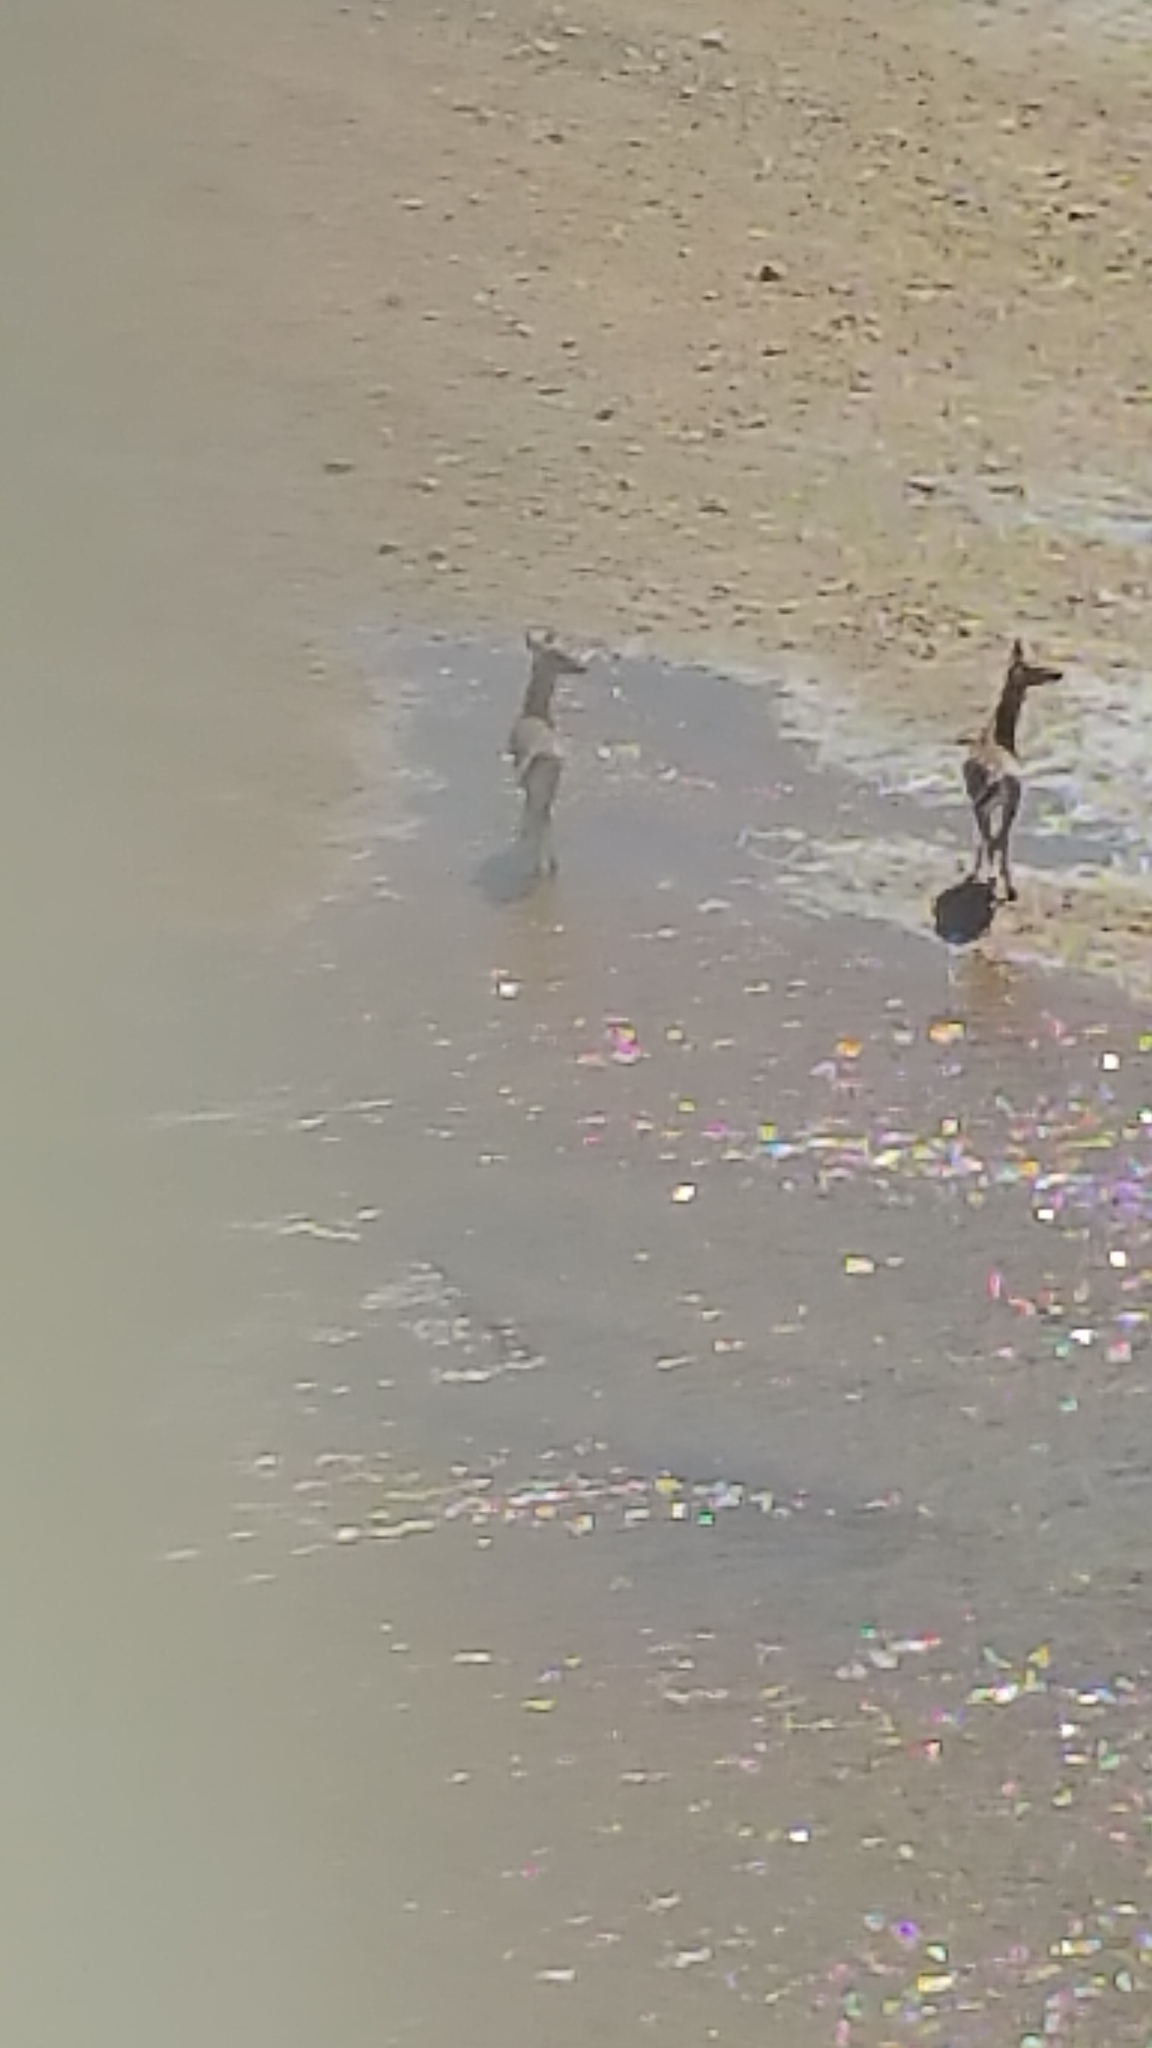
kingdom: Animalia
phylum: Chordata
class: Mammalia
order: Artiodactyla
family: Cervidae
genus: Odocoileus
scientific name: Odocoileus virginianus
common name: White-tailed deer
